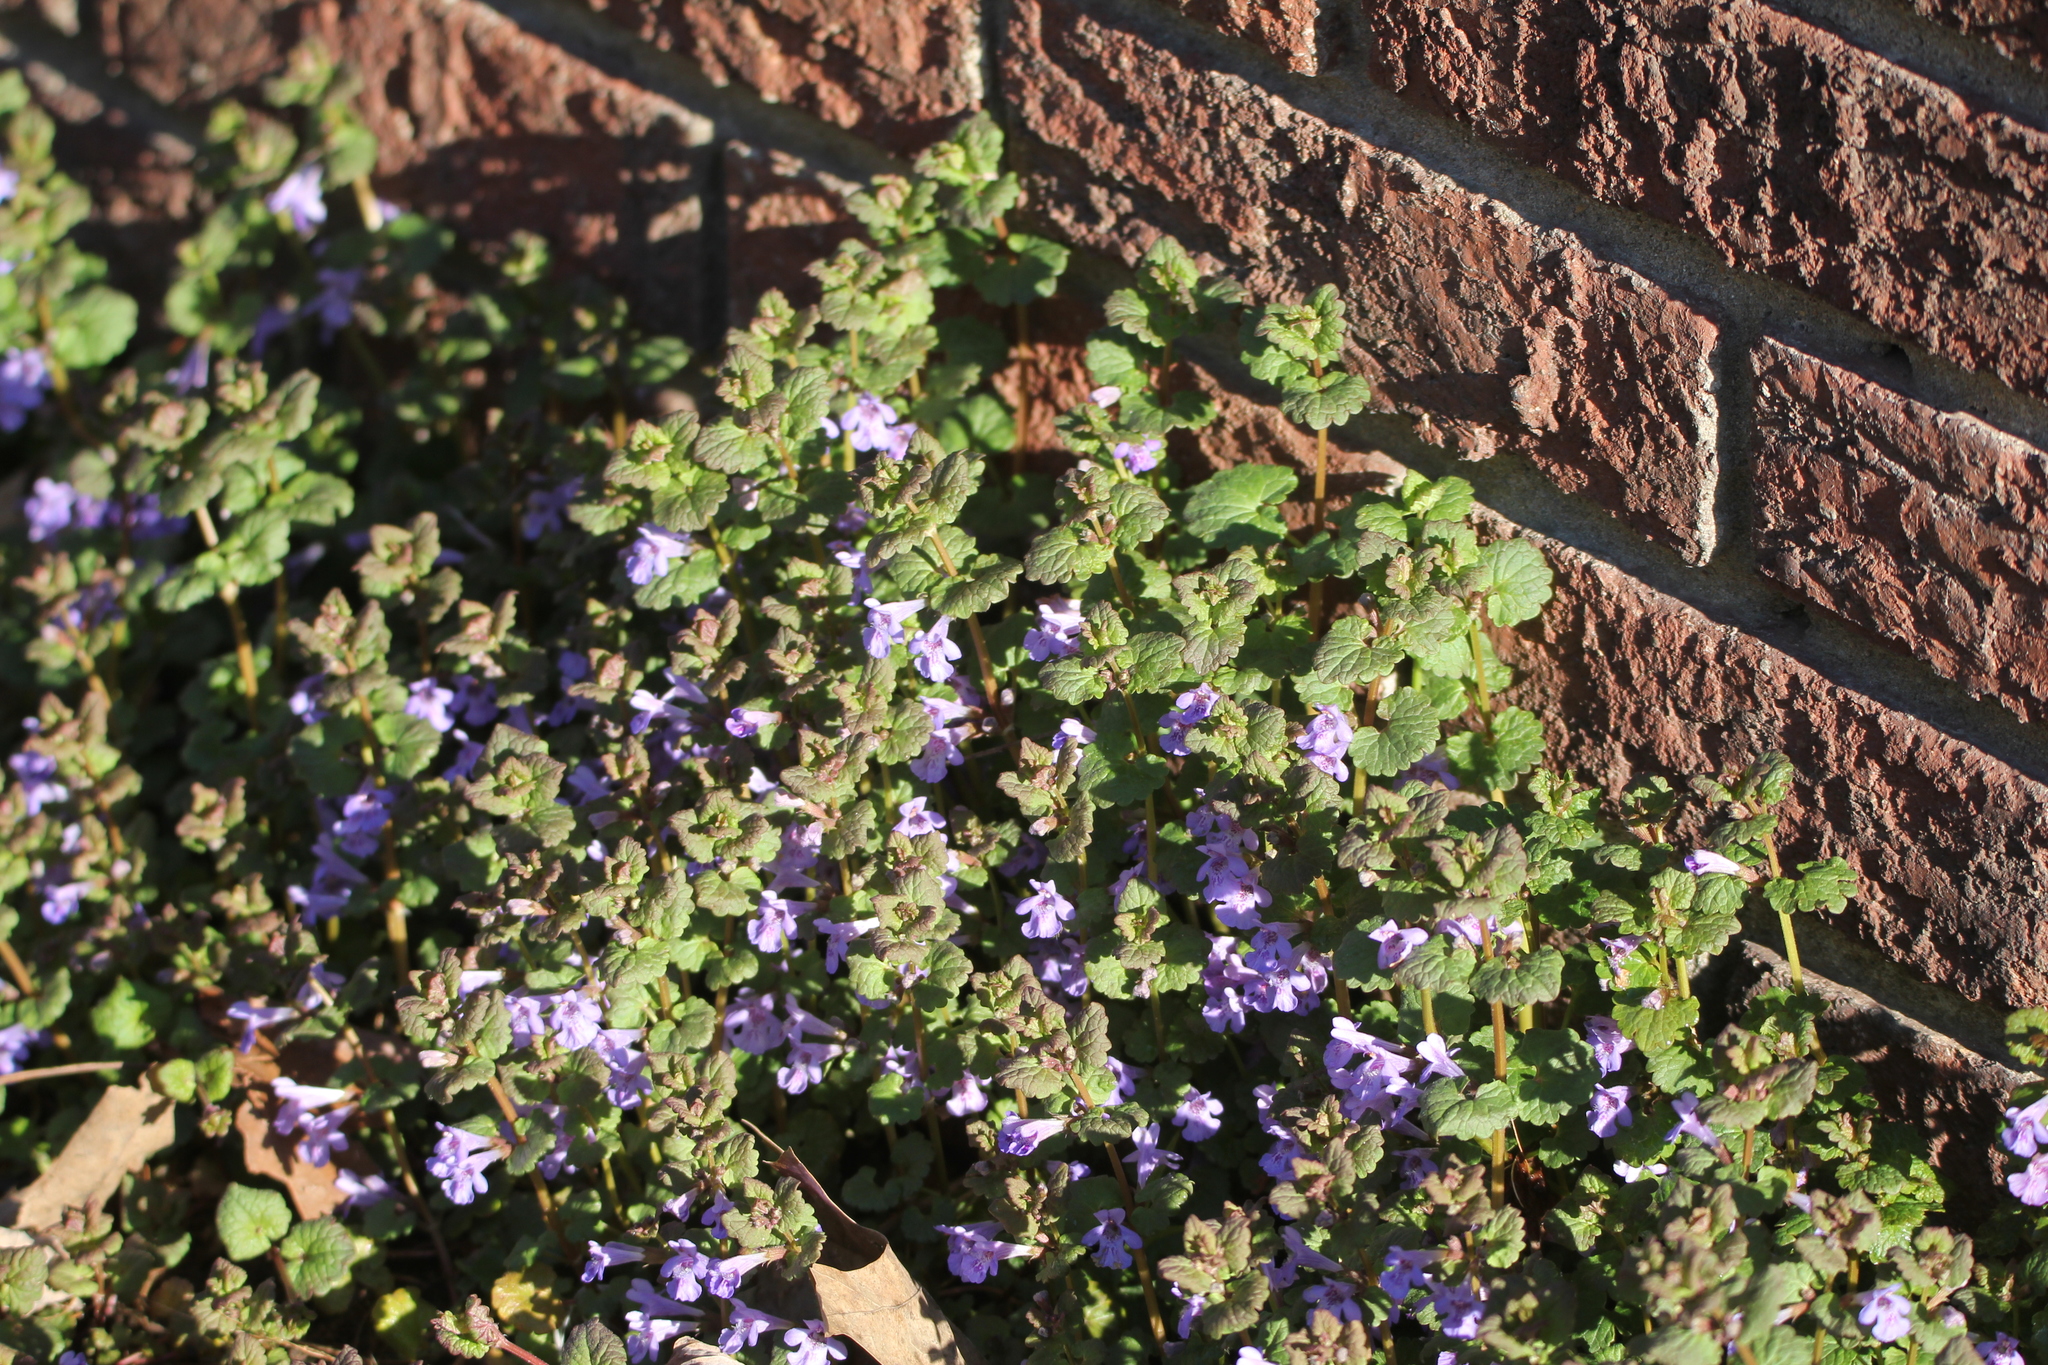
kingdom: Plantae
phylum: Tracheophyta
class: Magnoliopsida
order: Lamiales
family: Lamiaceae
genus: Glechoma
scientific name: Glechoma hederacea
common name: Ground ivy
